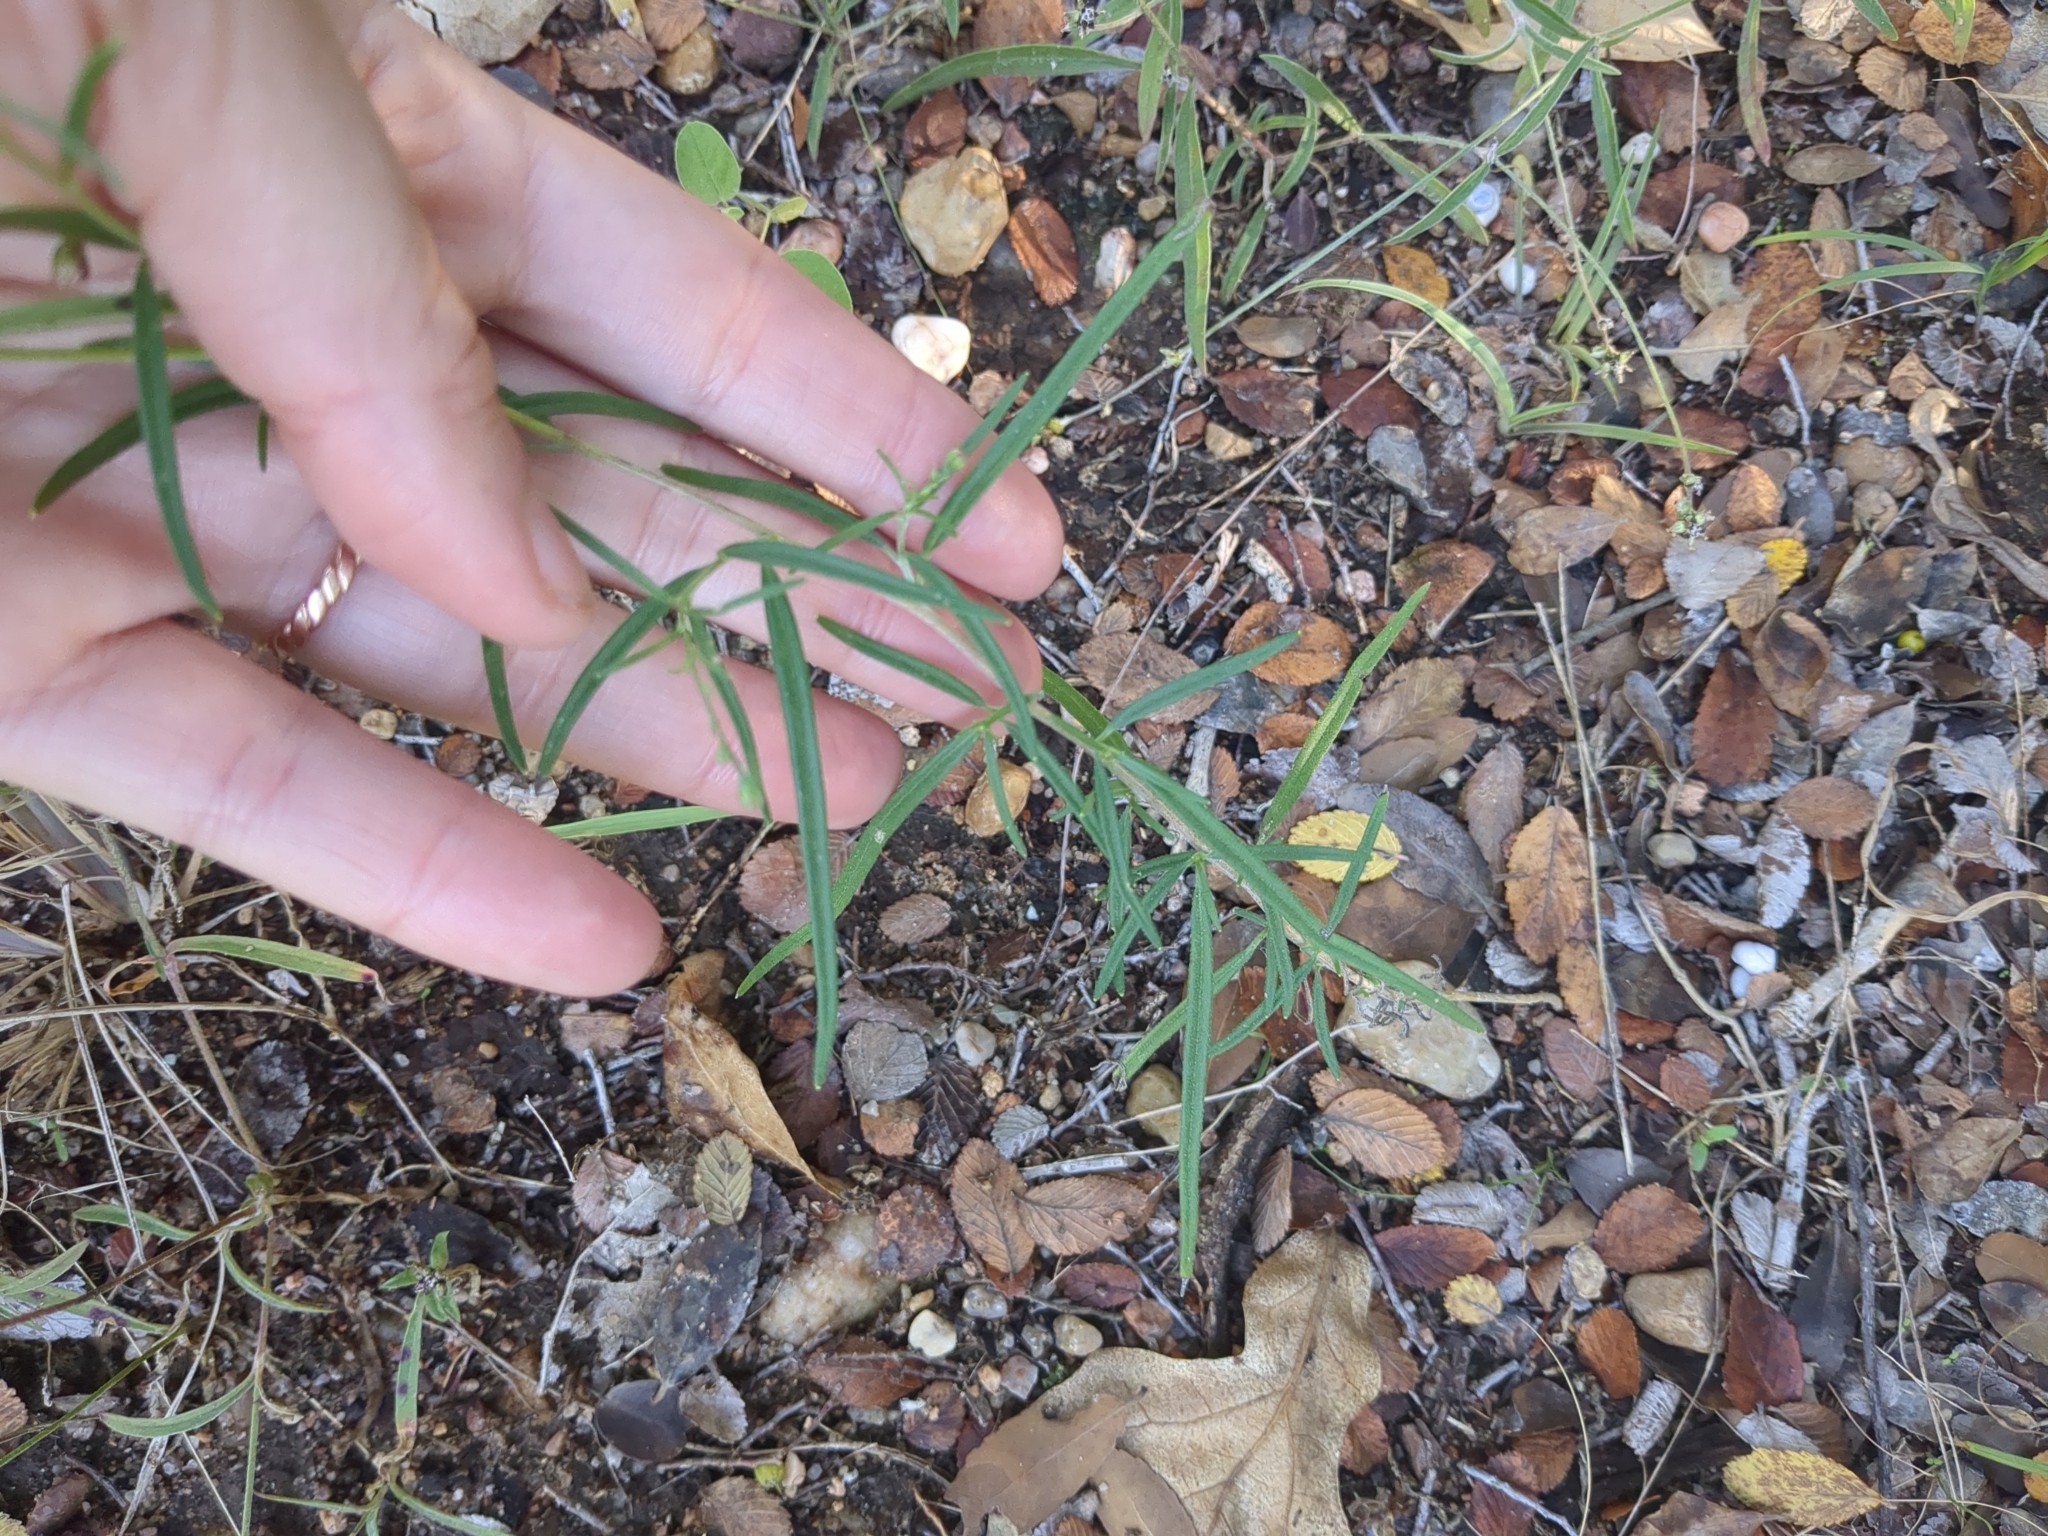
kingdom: Plantae
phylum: Tracheophyta
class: Magnoliopsida
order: Asterales
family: Asteraceae
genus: Palafoxia
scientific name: Palafoxia callosa
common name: Small palafox
